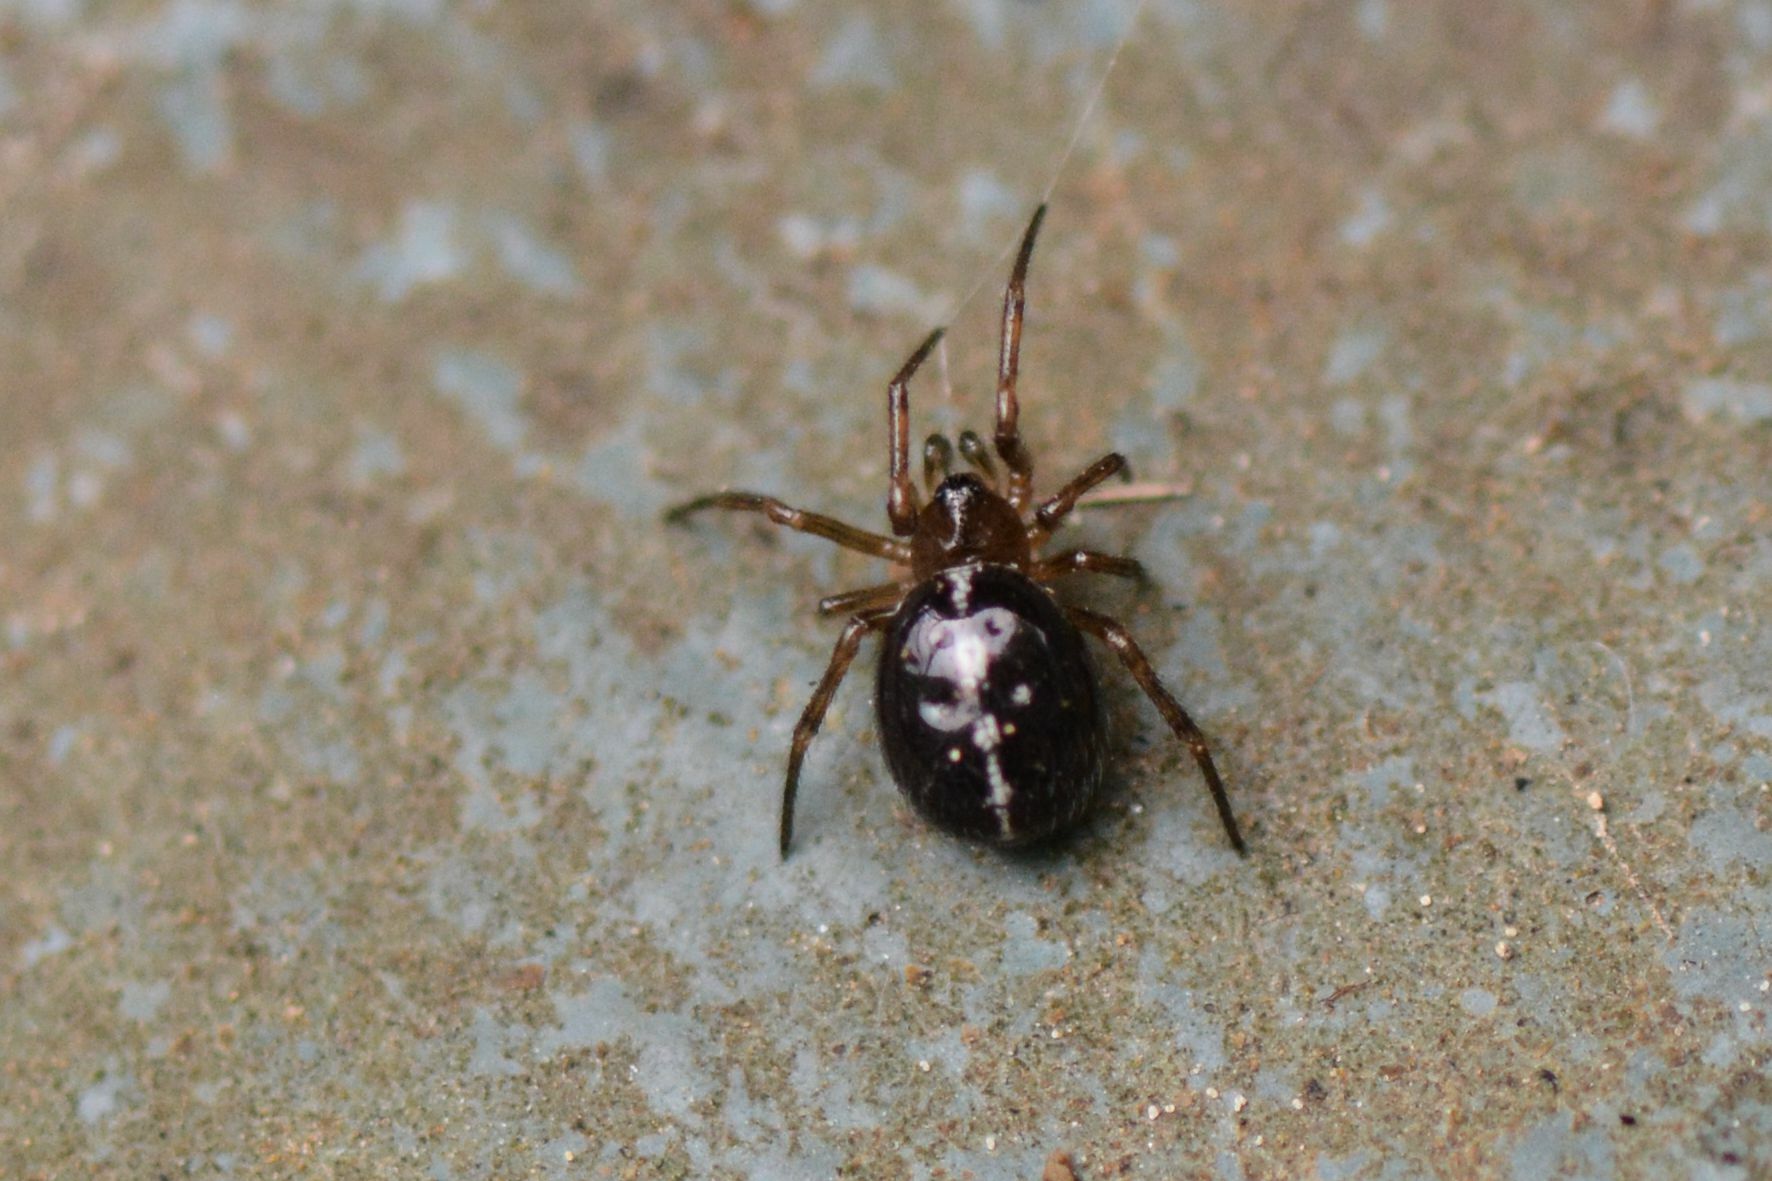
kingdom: Animalia
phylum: Arthropoda
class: Arachnida
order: Araneae
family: Theridiidae
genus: Steatoda
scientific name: Steatoda bipunctata
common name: False widow
